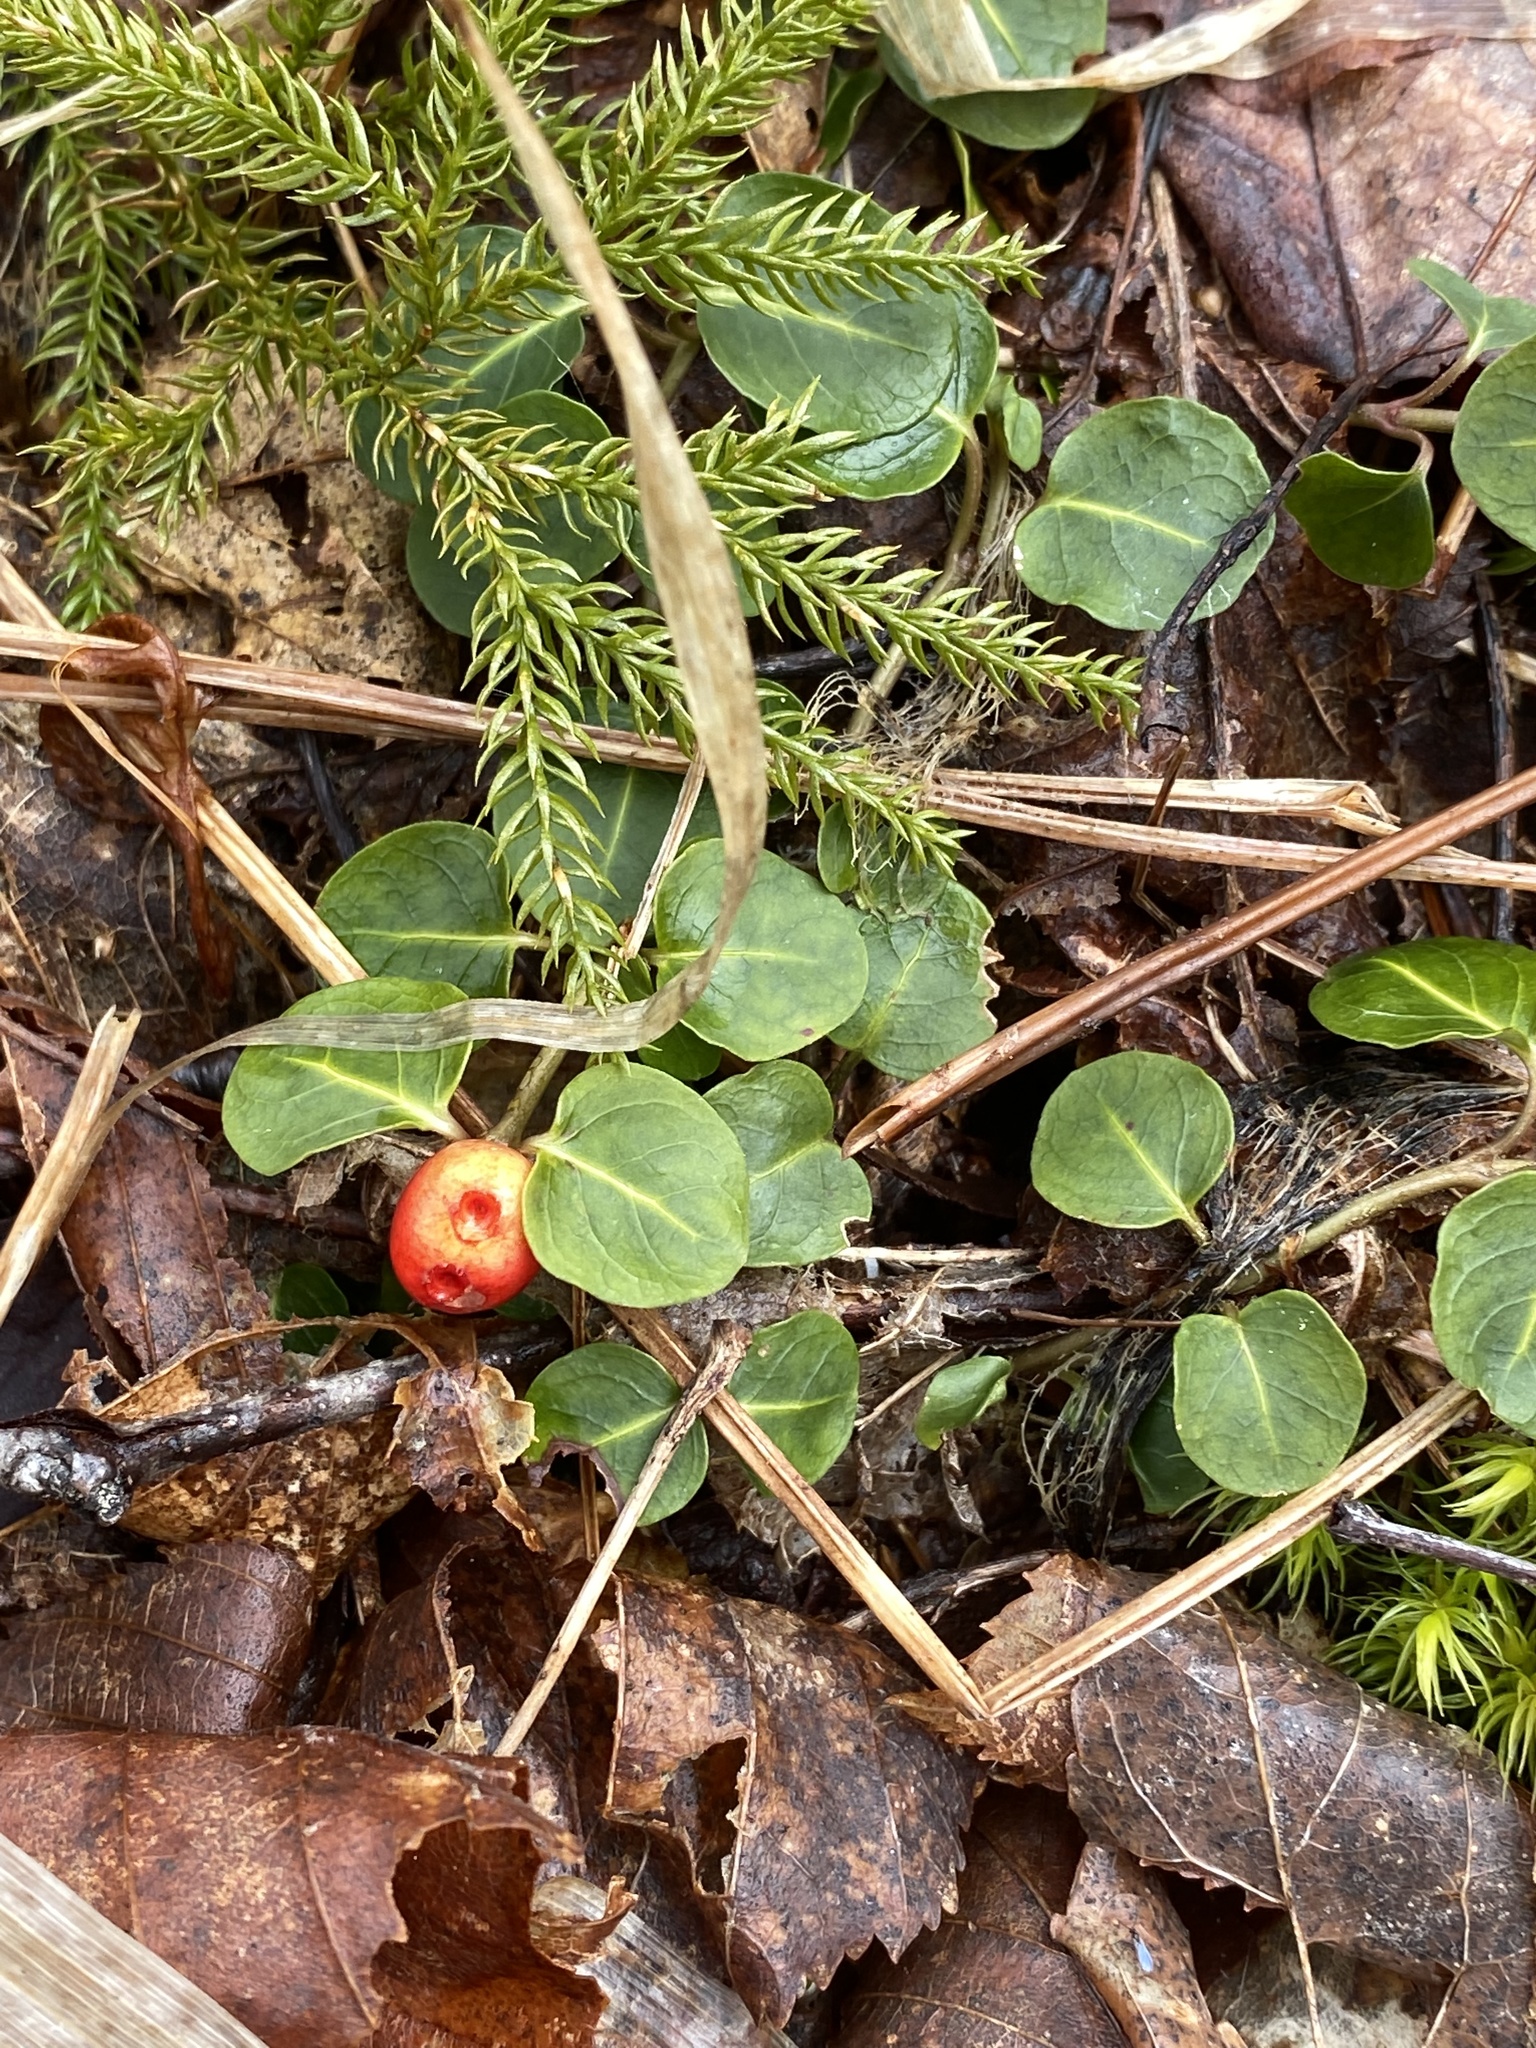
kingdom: Plantae
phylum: Tracheophyta
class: Magnoliopsida
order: Gentianales
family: Rubiaceae
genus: Mitchella
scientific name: Mitchella repens
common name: Partridge-berry
